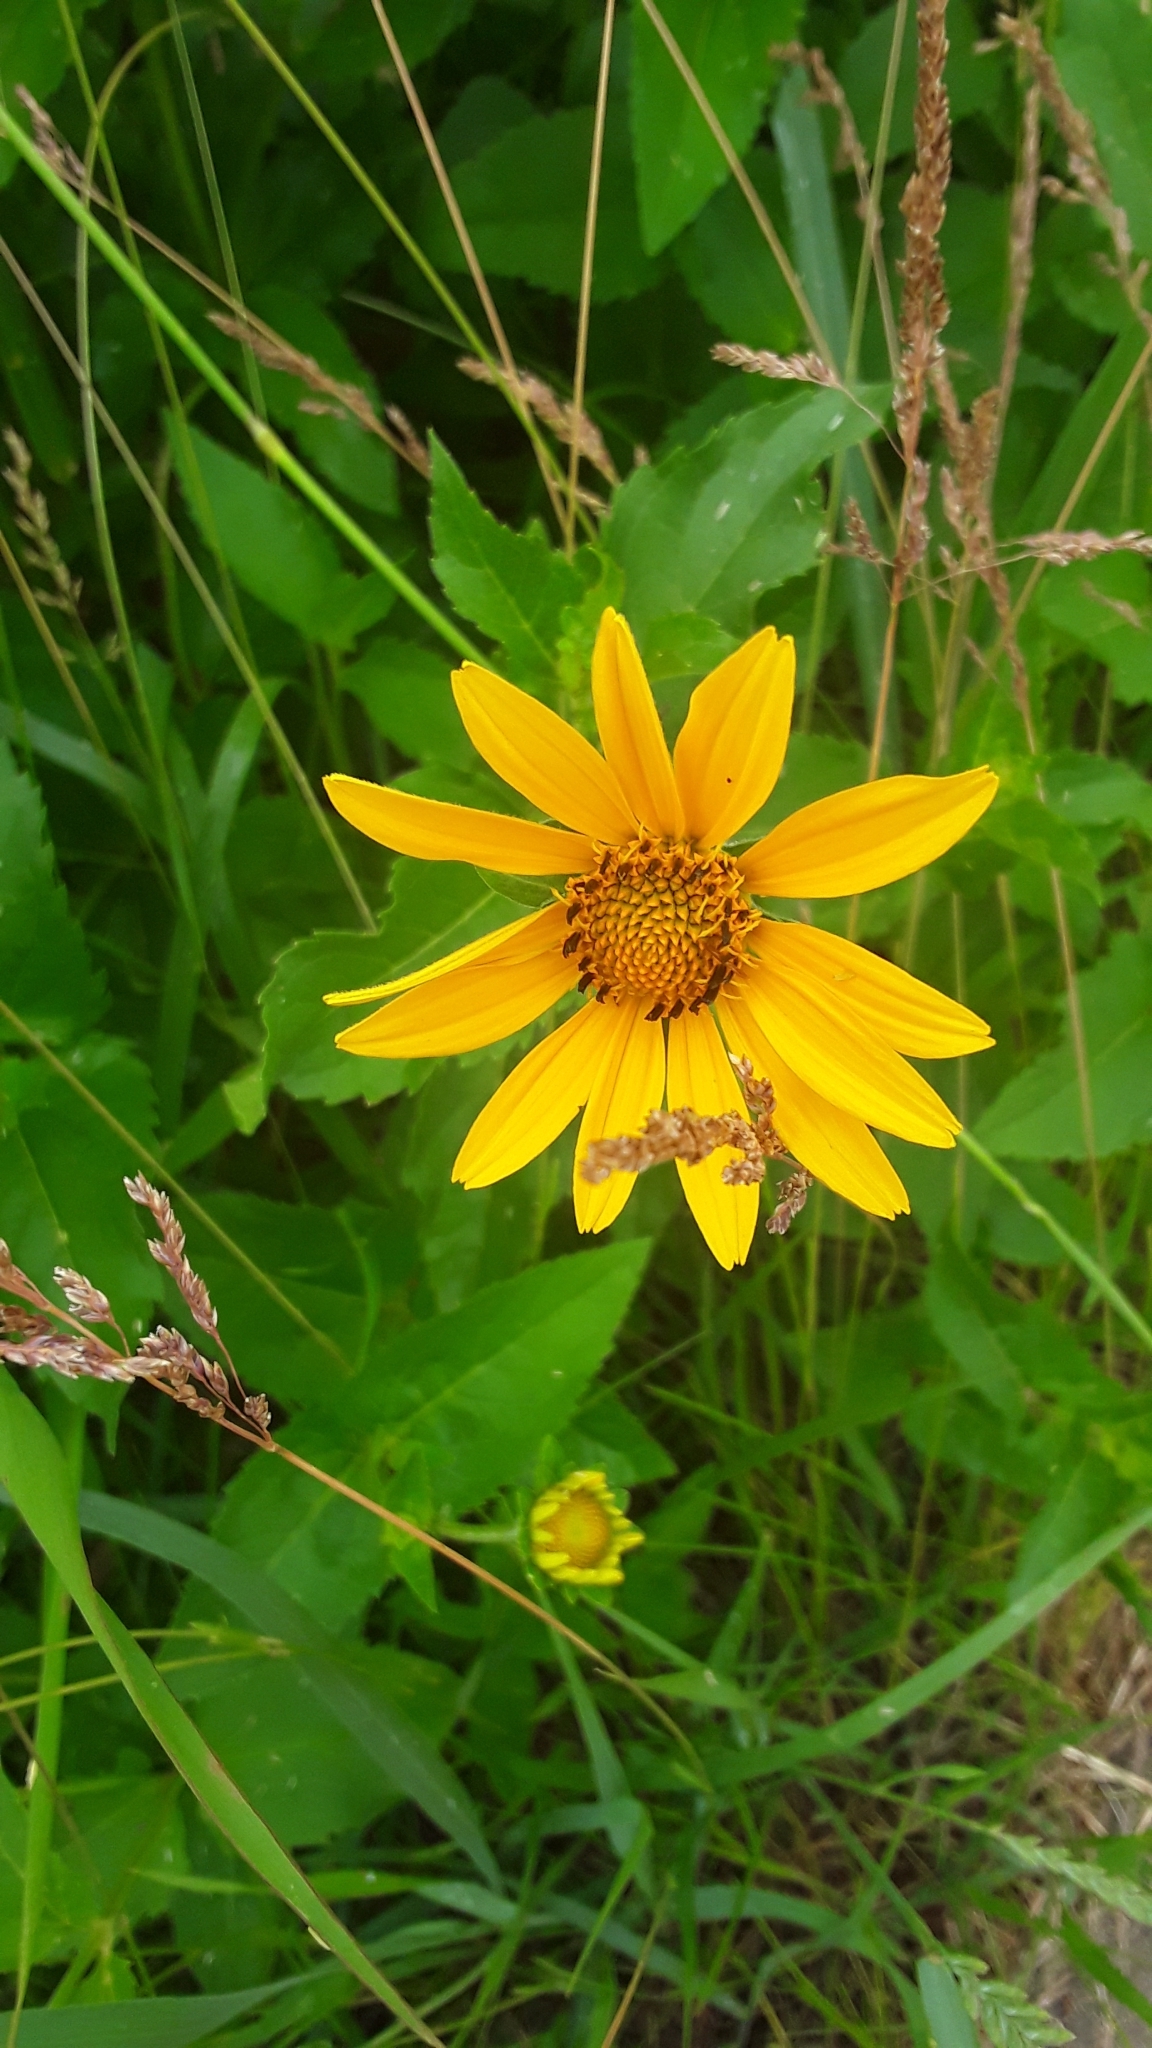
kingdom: Plantae
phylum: Tracheophyta
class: Magnoliopsida
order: Asterales
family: Asteraceae
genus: Heliopsis
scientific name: Heliopsis helianthoides
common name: False sunflower
